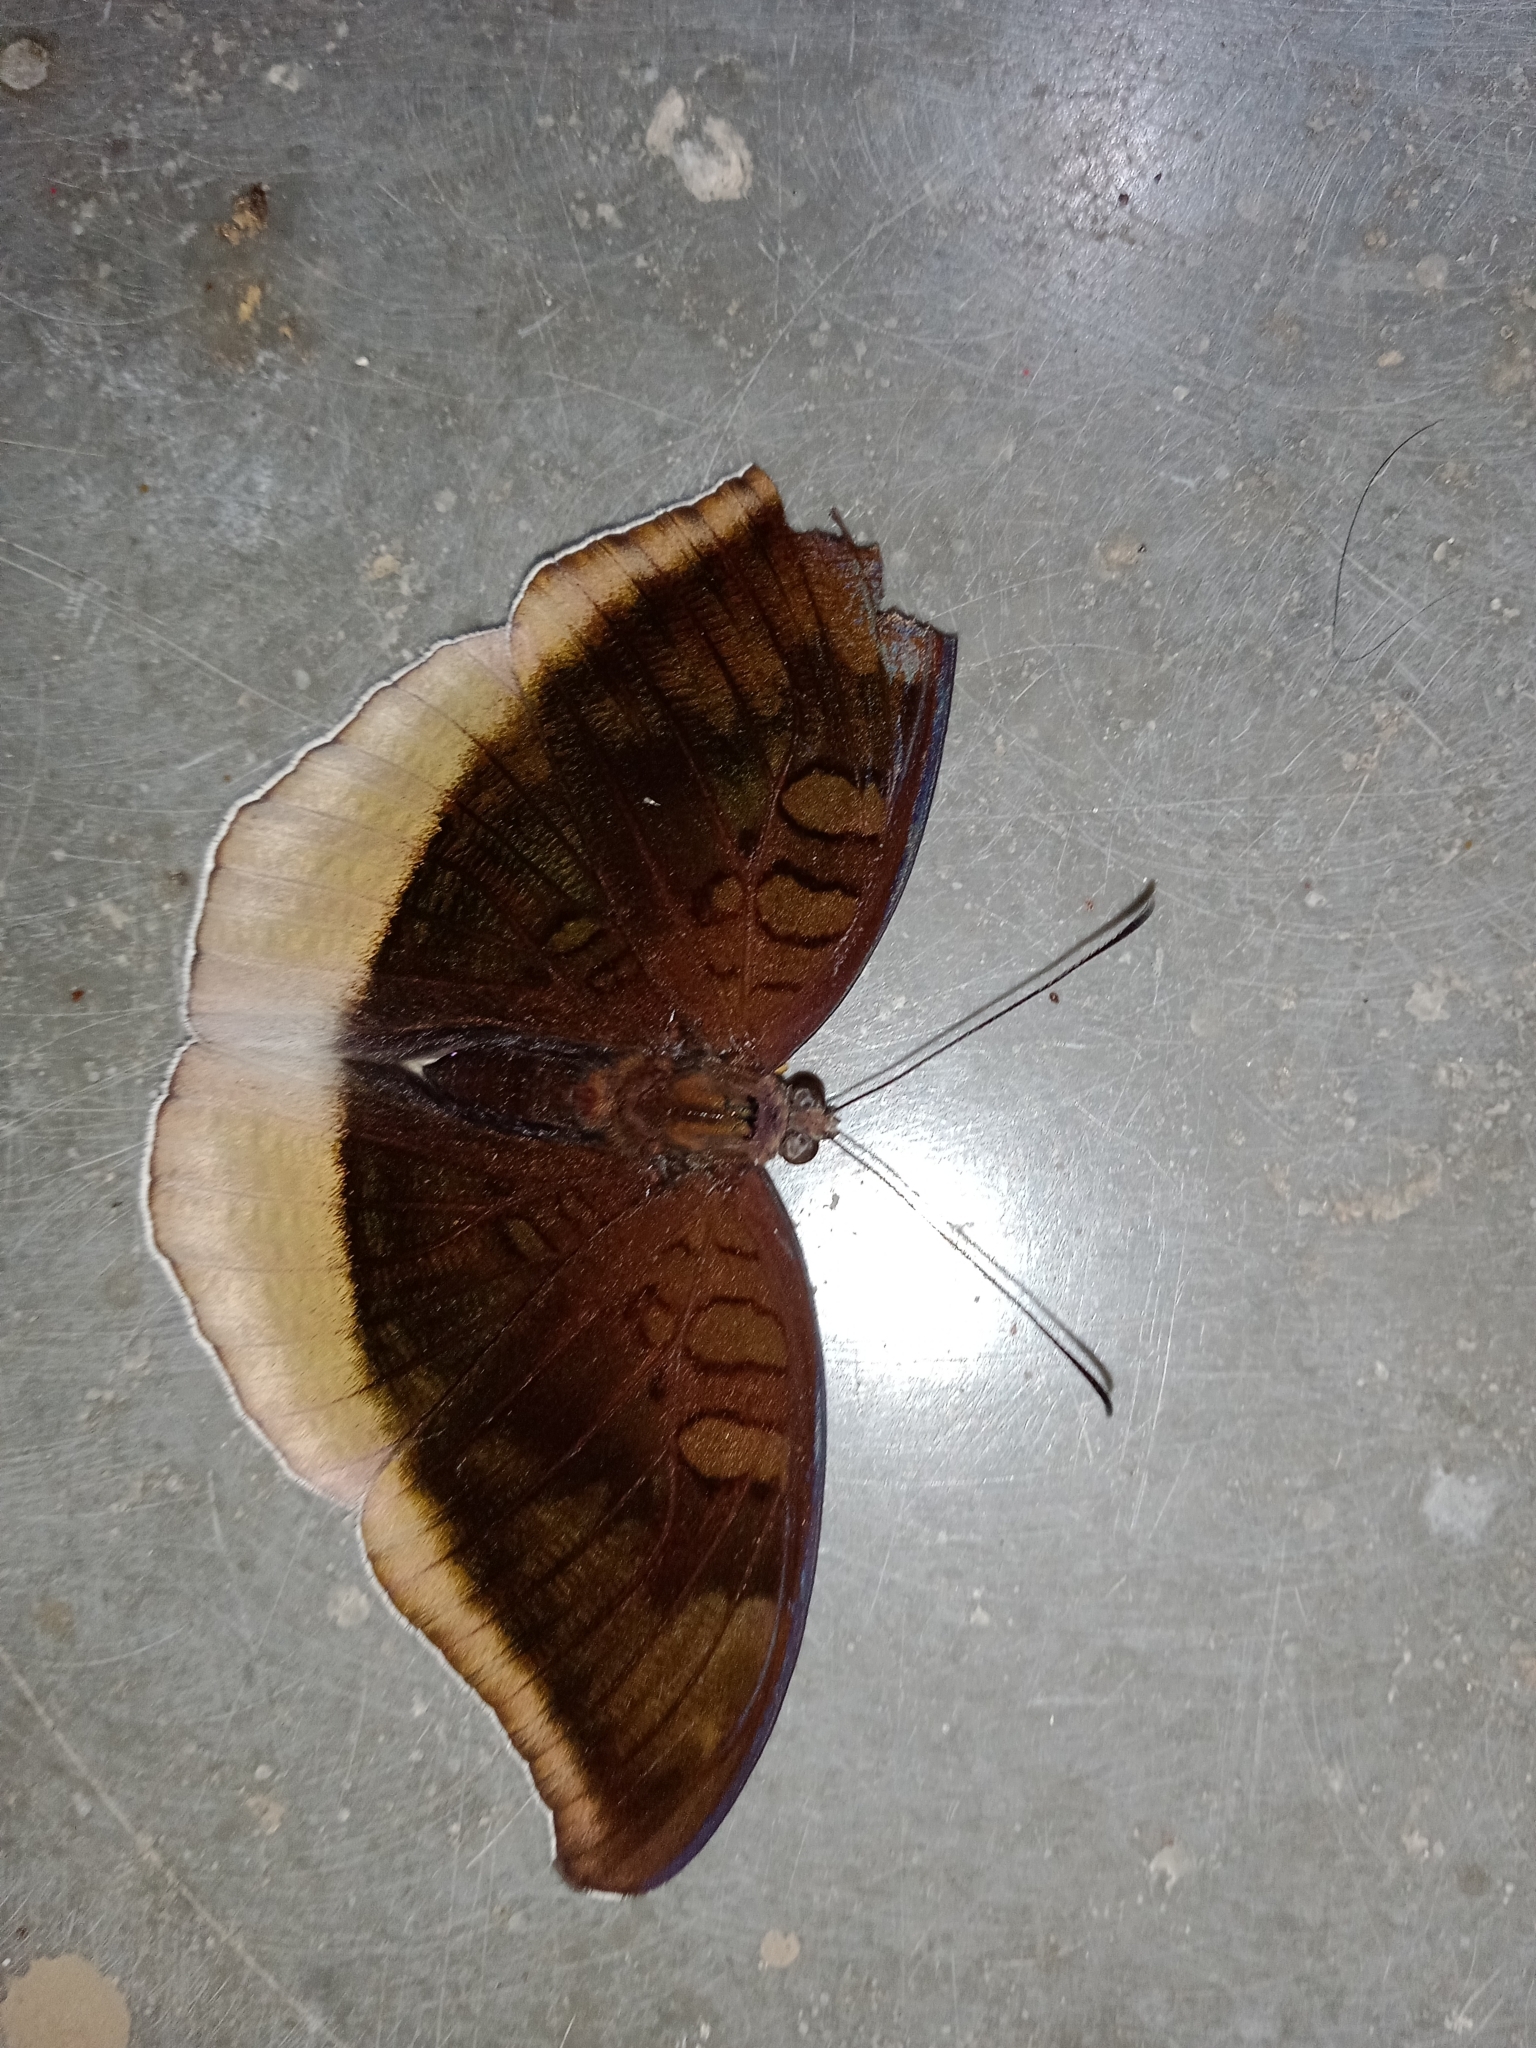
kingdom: Animalia
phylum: Arthropoda
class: Insecta
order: Lepidoptera
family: Nymphalidae
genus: Tanaecia
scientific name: Tanaecia lepidea
